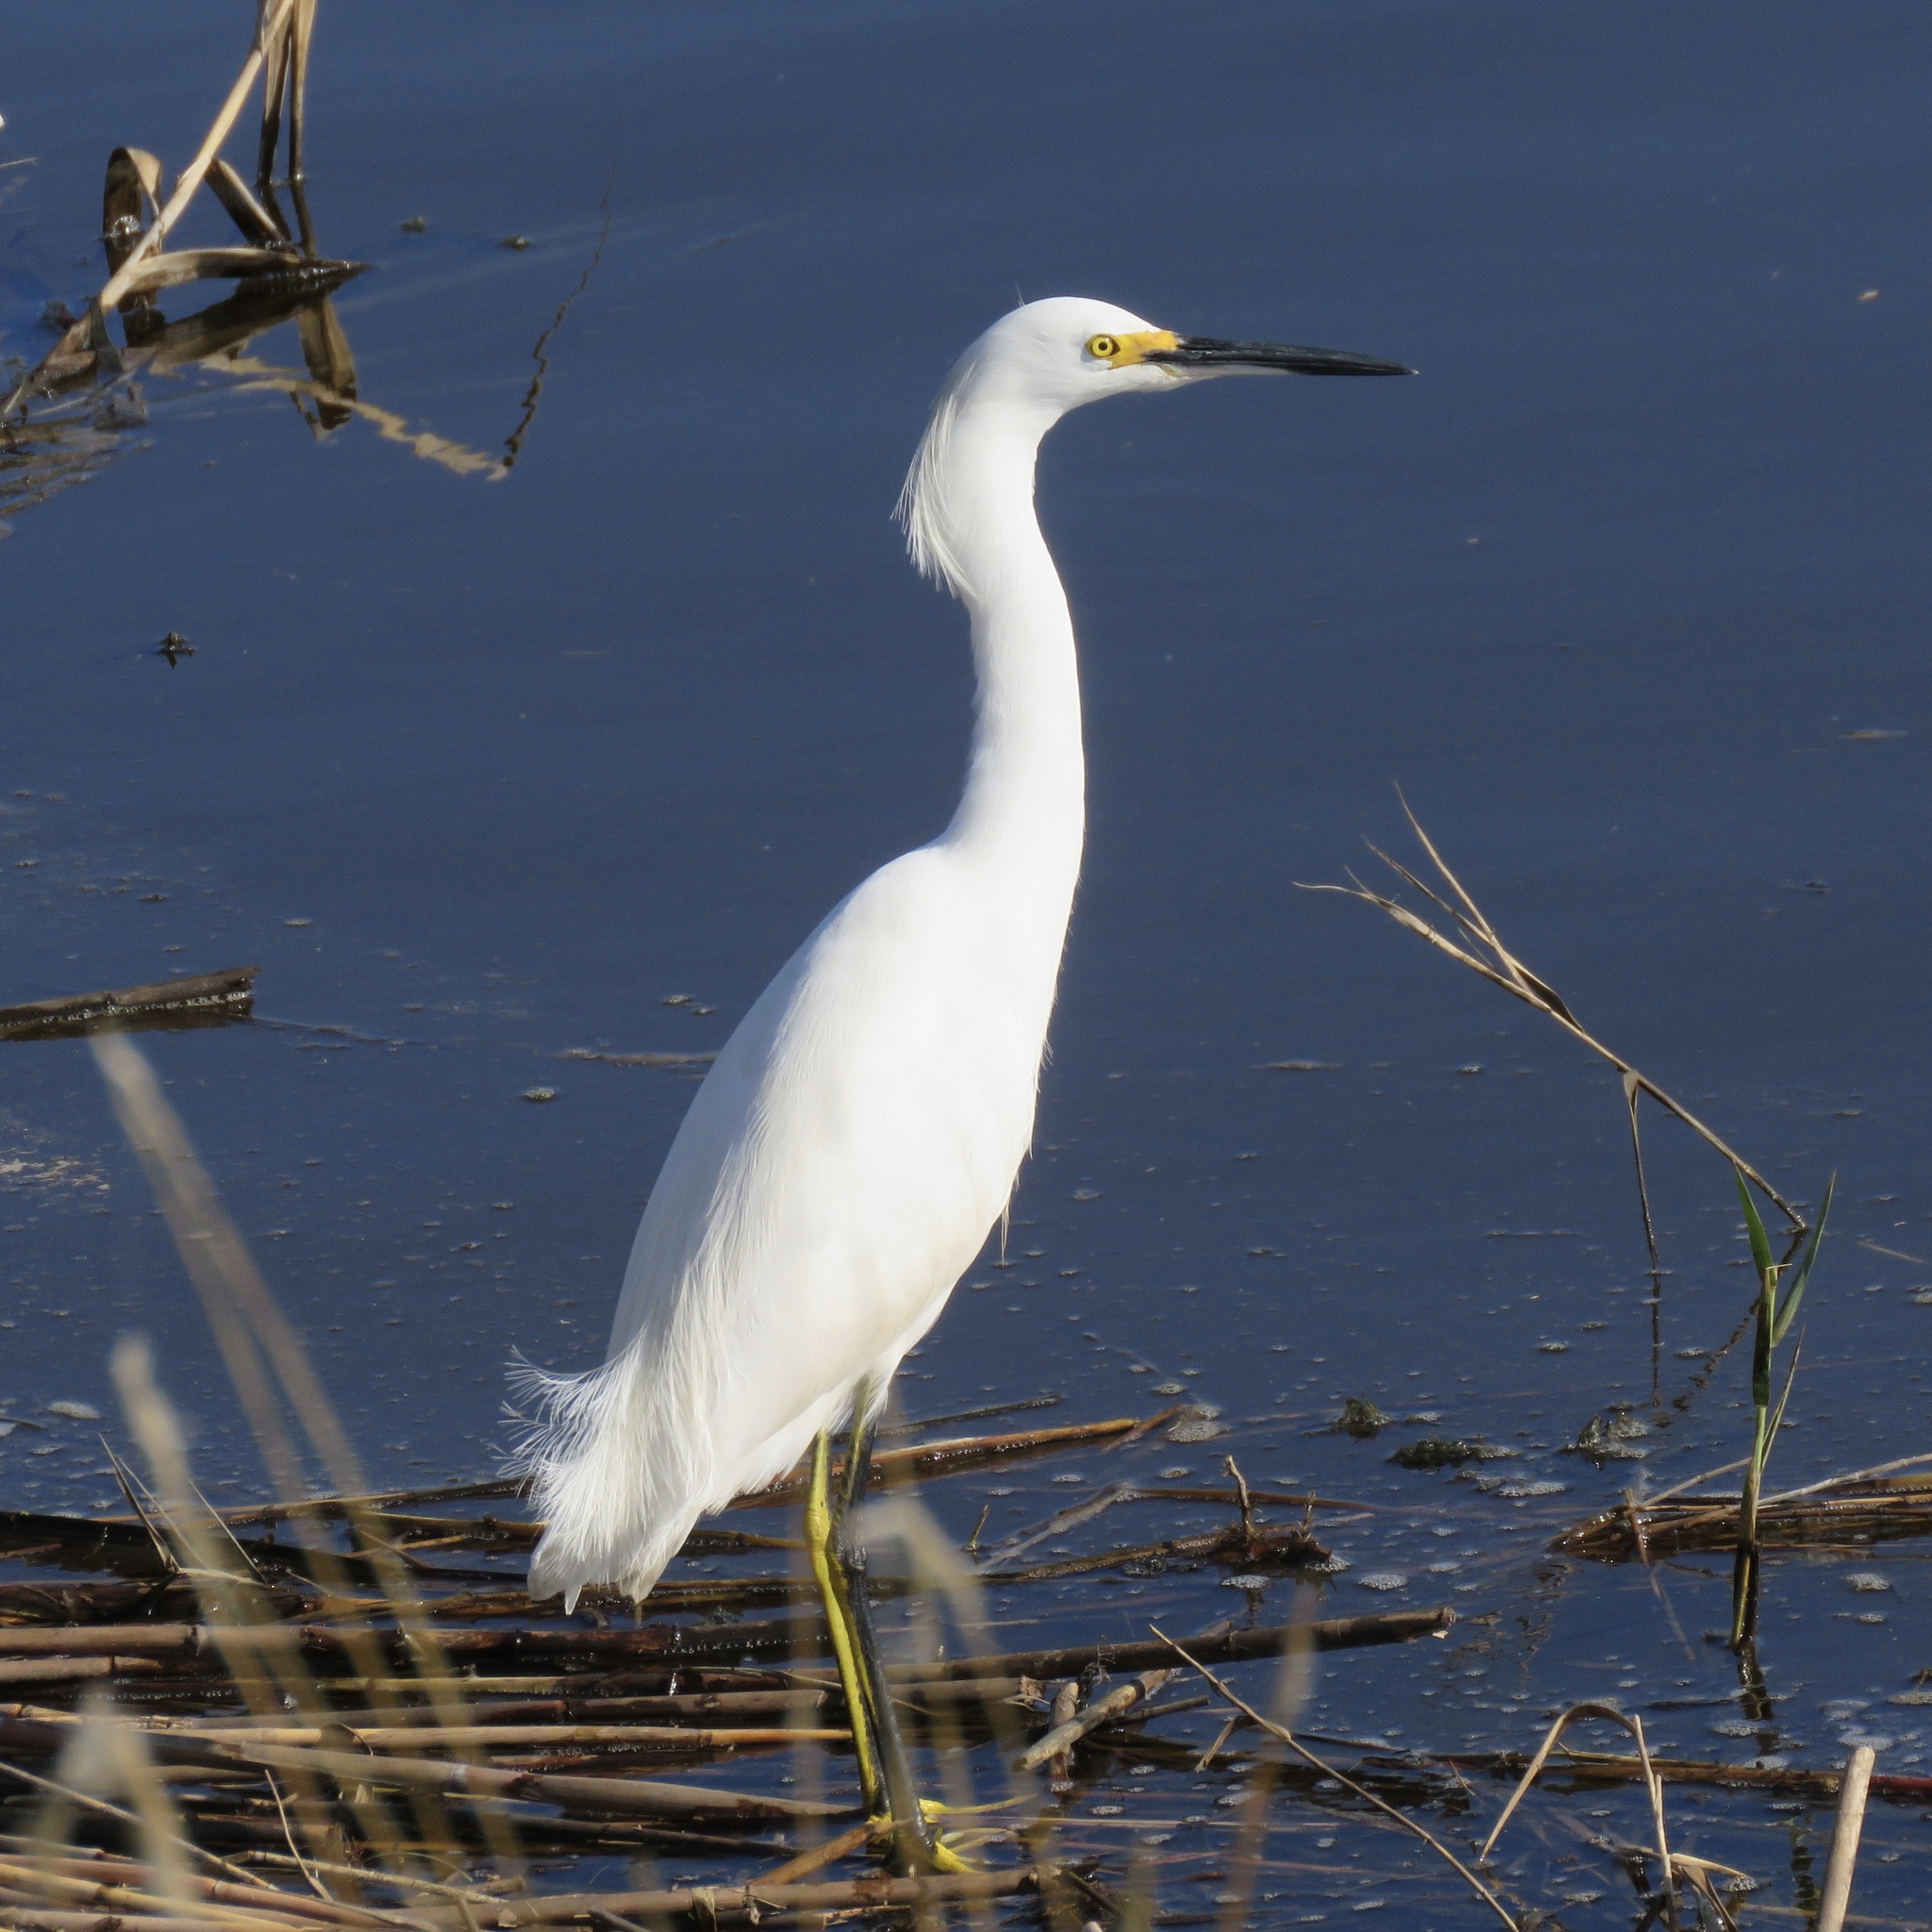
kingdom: Animalia
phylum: Chordata
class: Aves
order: Pelecaniformes
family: Ardeidae
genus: Egretta
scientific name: Egretta thula
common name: Snowy egret
